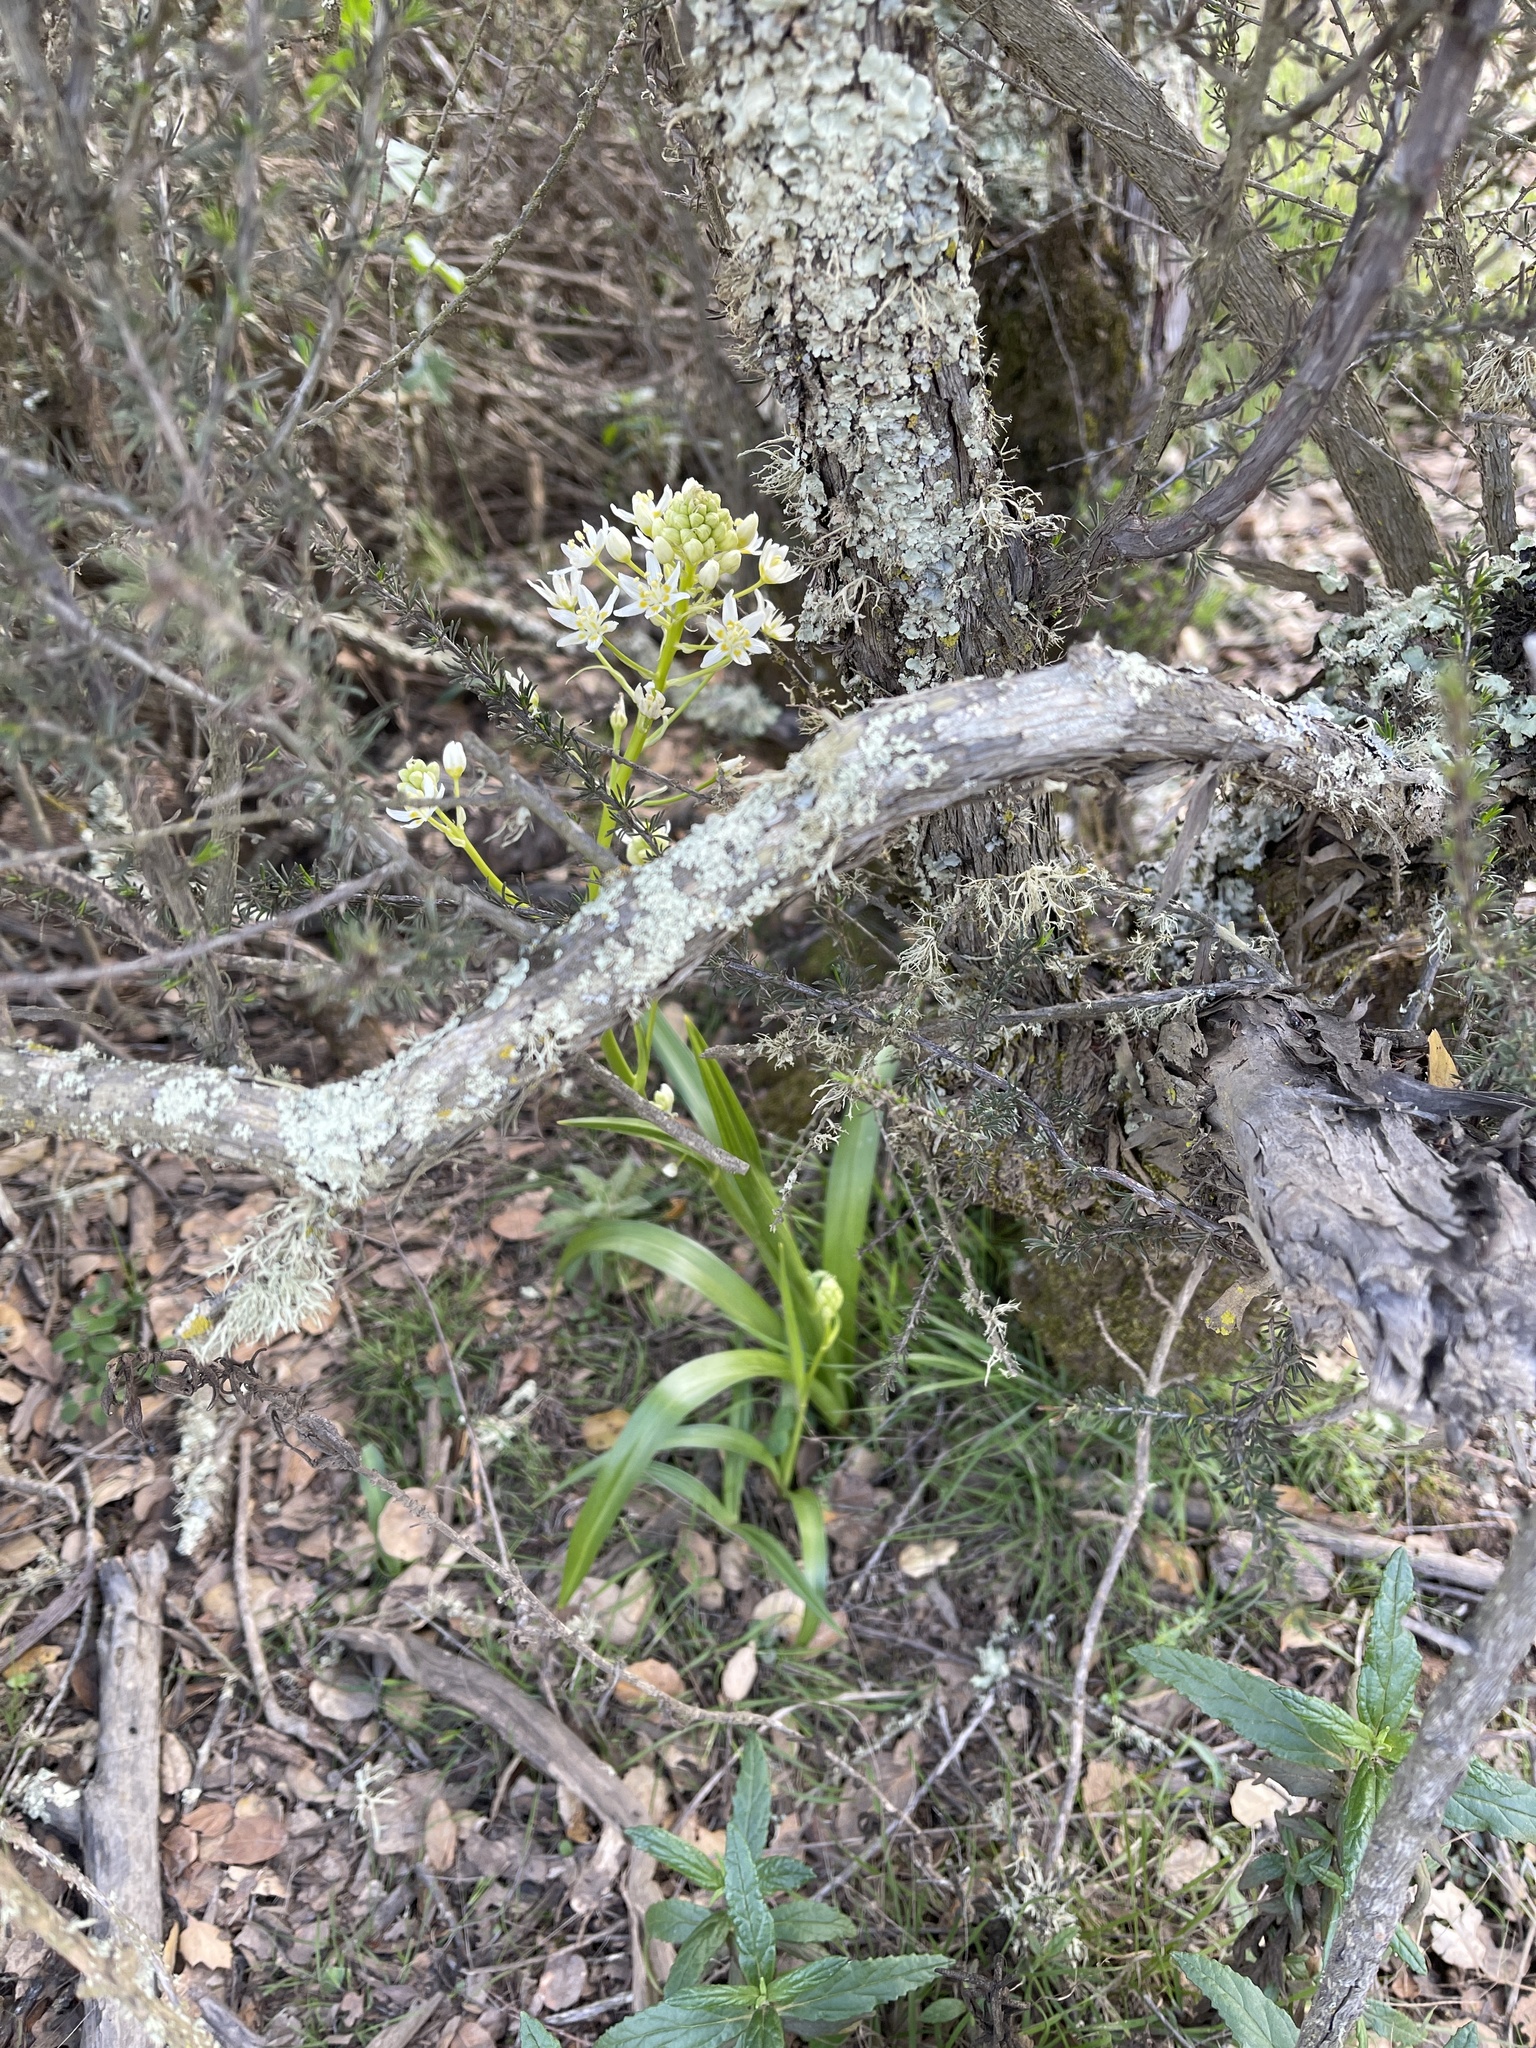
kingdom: Plantae
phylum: Tracheophyta
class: Liliopsida
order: Liliales
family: Melanthiaceae
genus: Toxicoscordion
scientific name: Toxicoscordion fremontii
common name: Fremont's death camas
